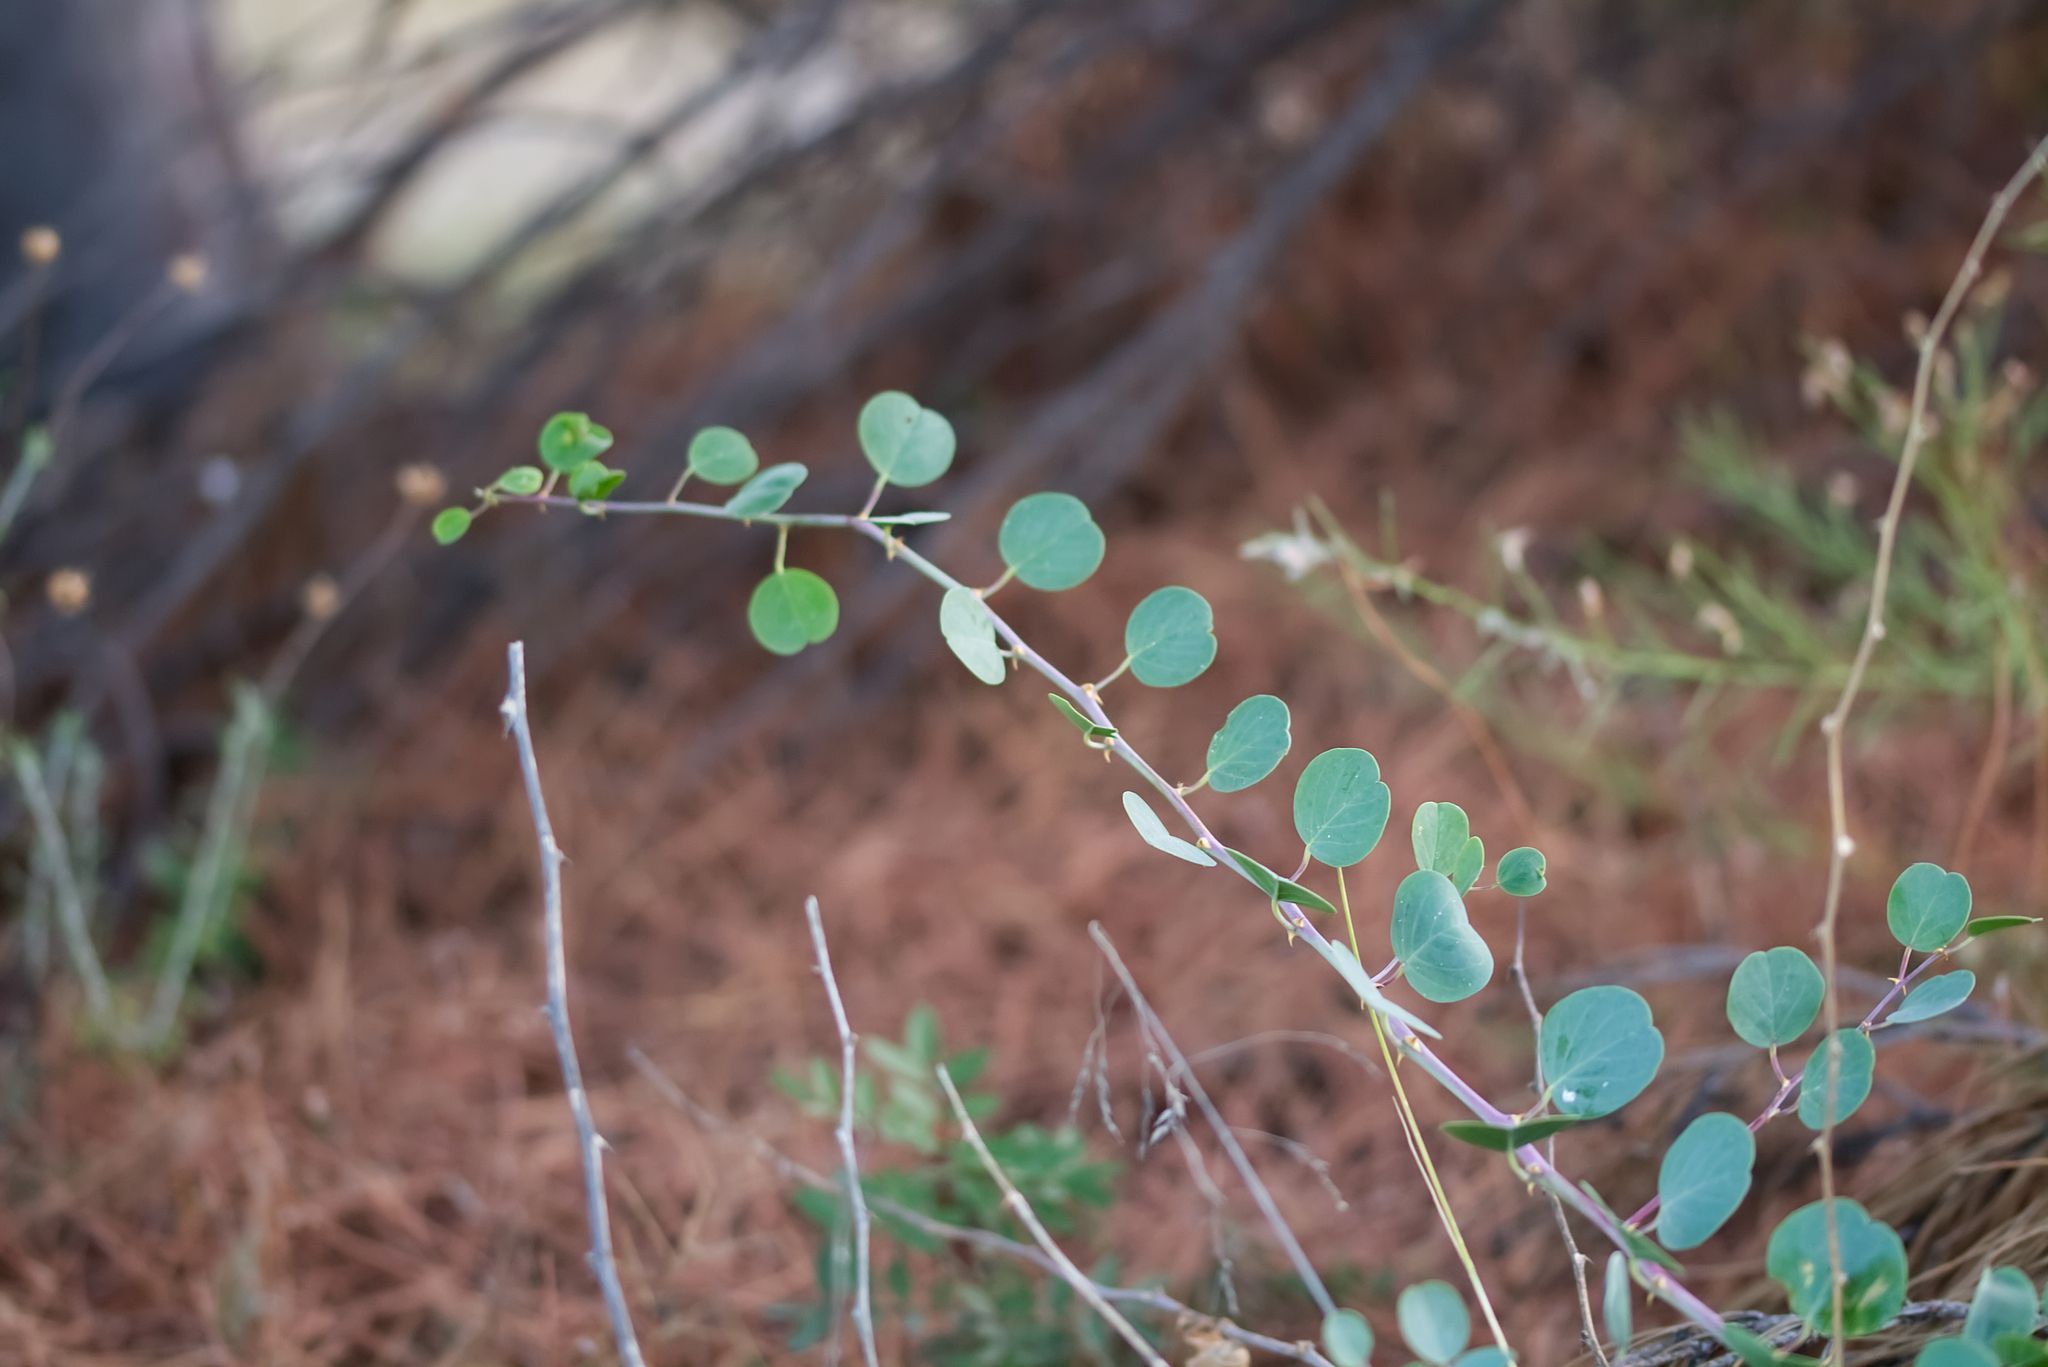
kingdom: Plantae
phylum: Tracheophyta
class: Magnoliopsida
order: Brassicales
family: Capparaceae
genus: Capparis
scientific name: Capparis spinosa
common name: Caper
